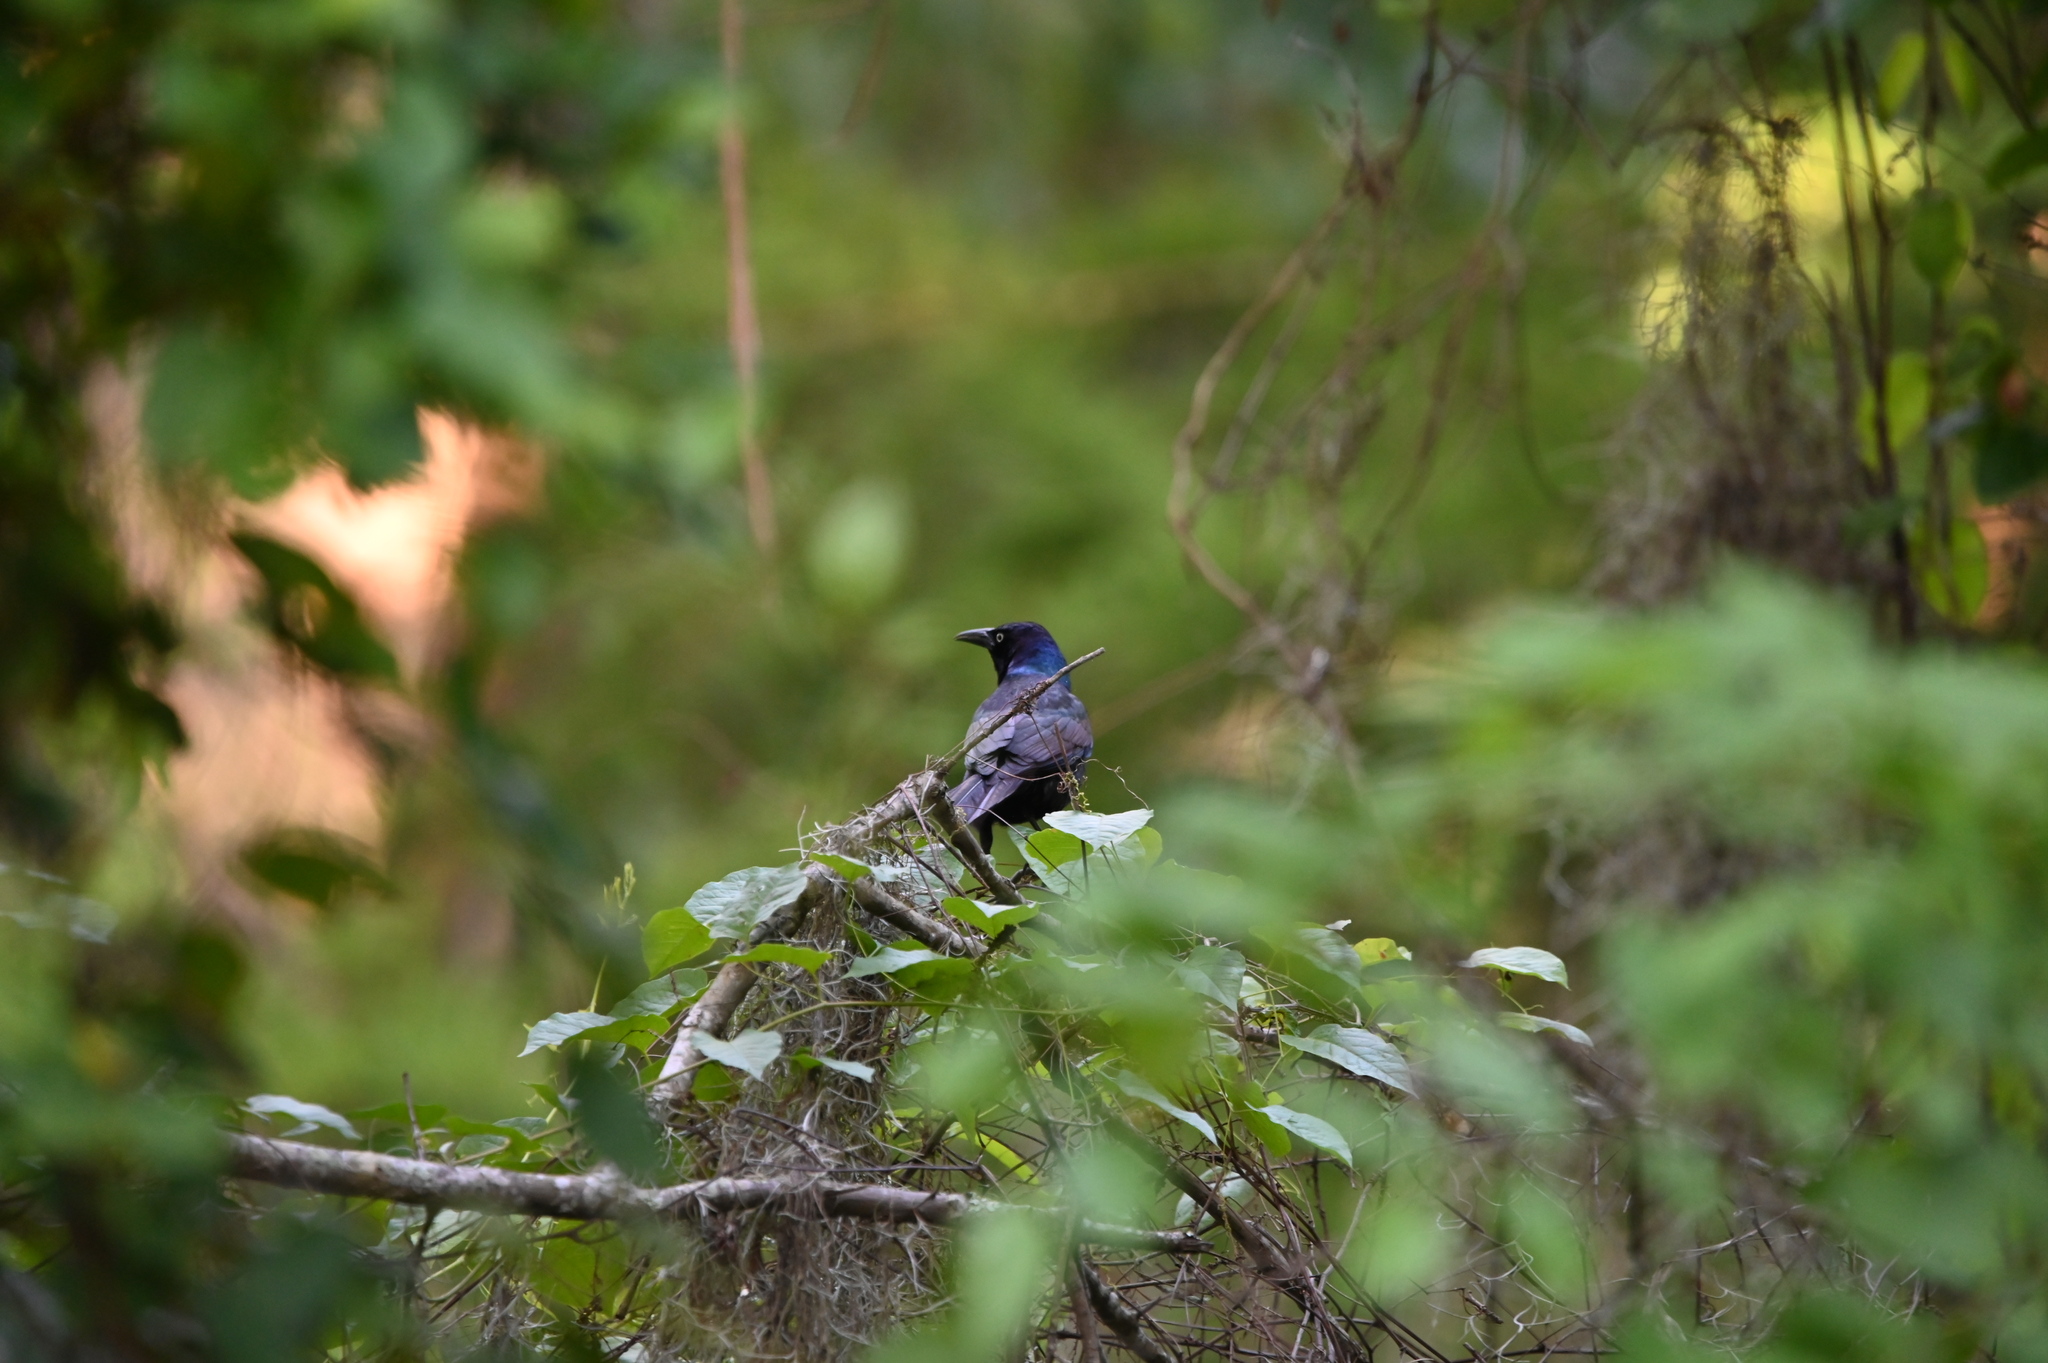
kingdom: Animalia
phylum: Chordata
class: Aves
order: Passeriformes
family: Icteridae
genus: Quiscalus
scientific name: Quiscalus quiscula
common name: Common grackle
